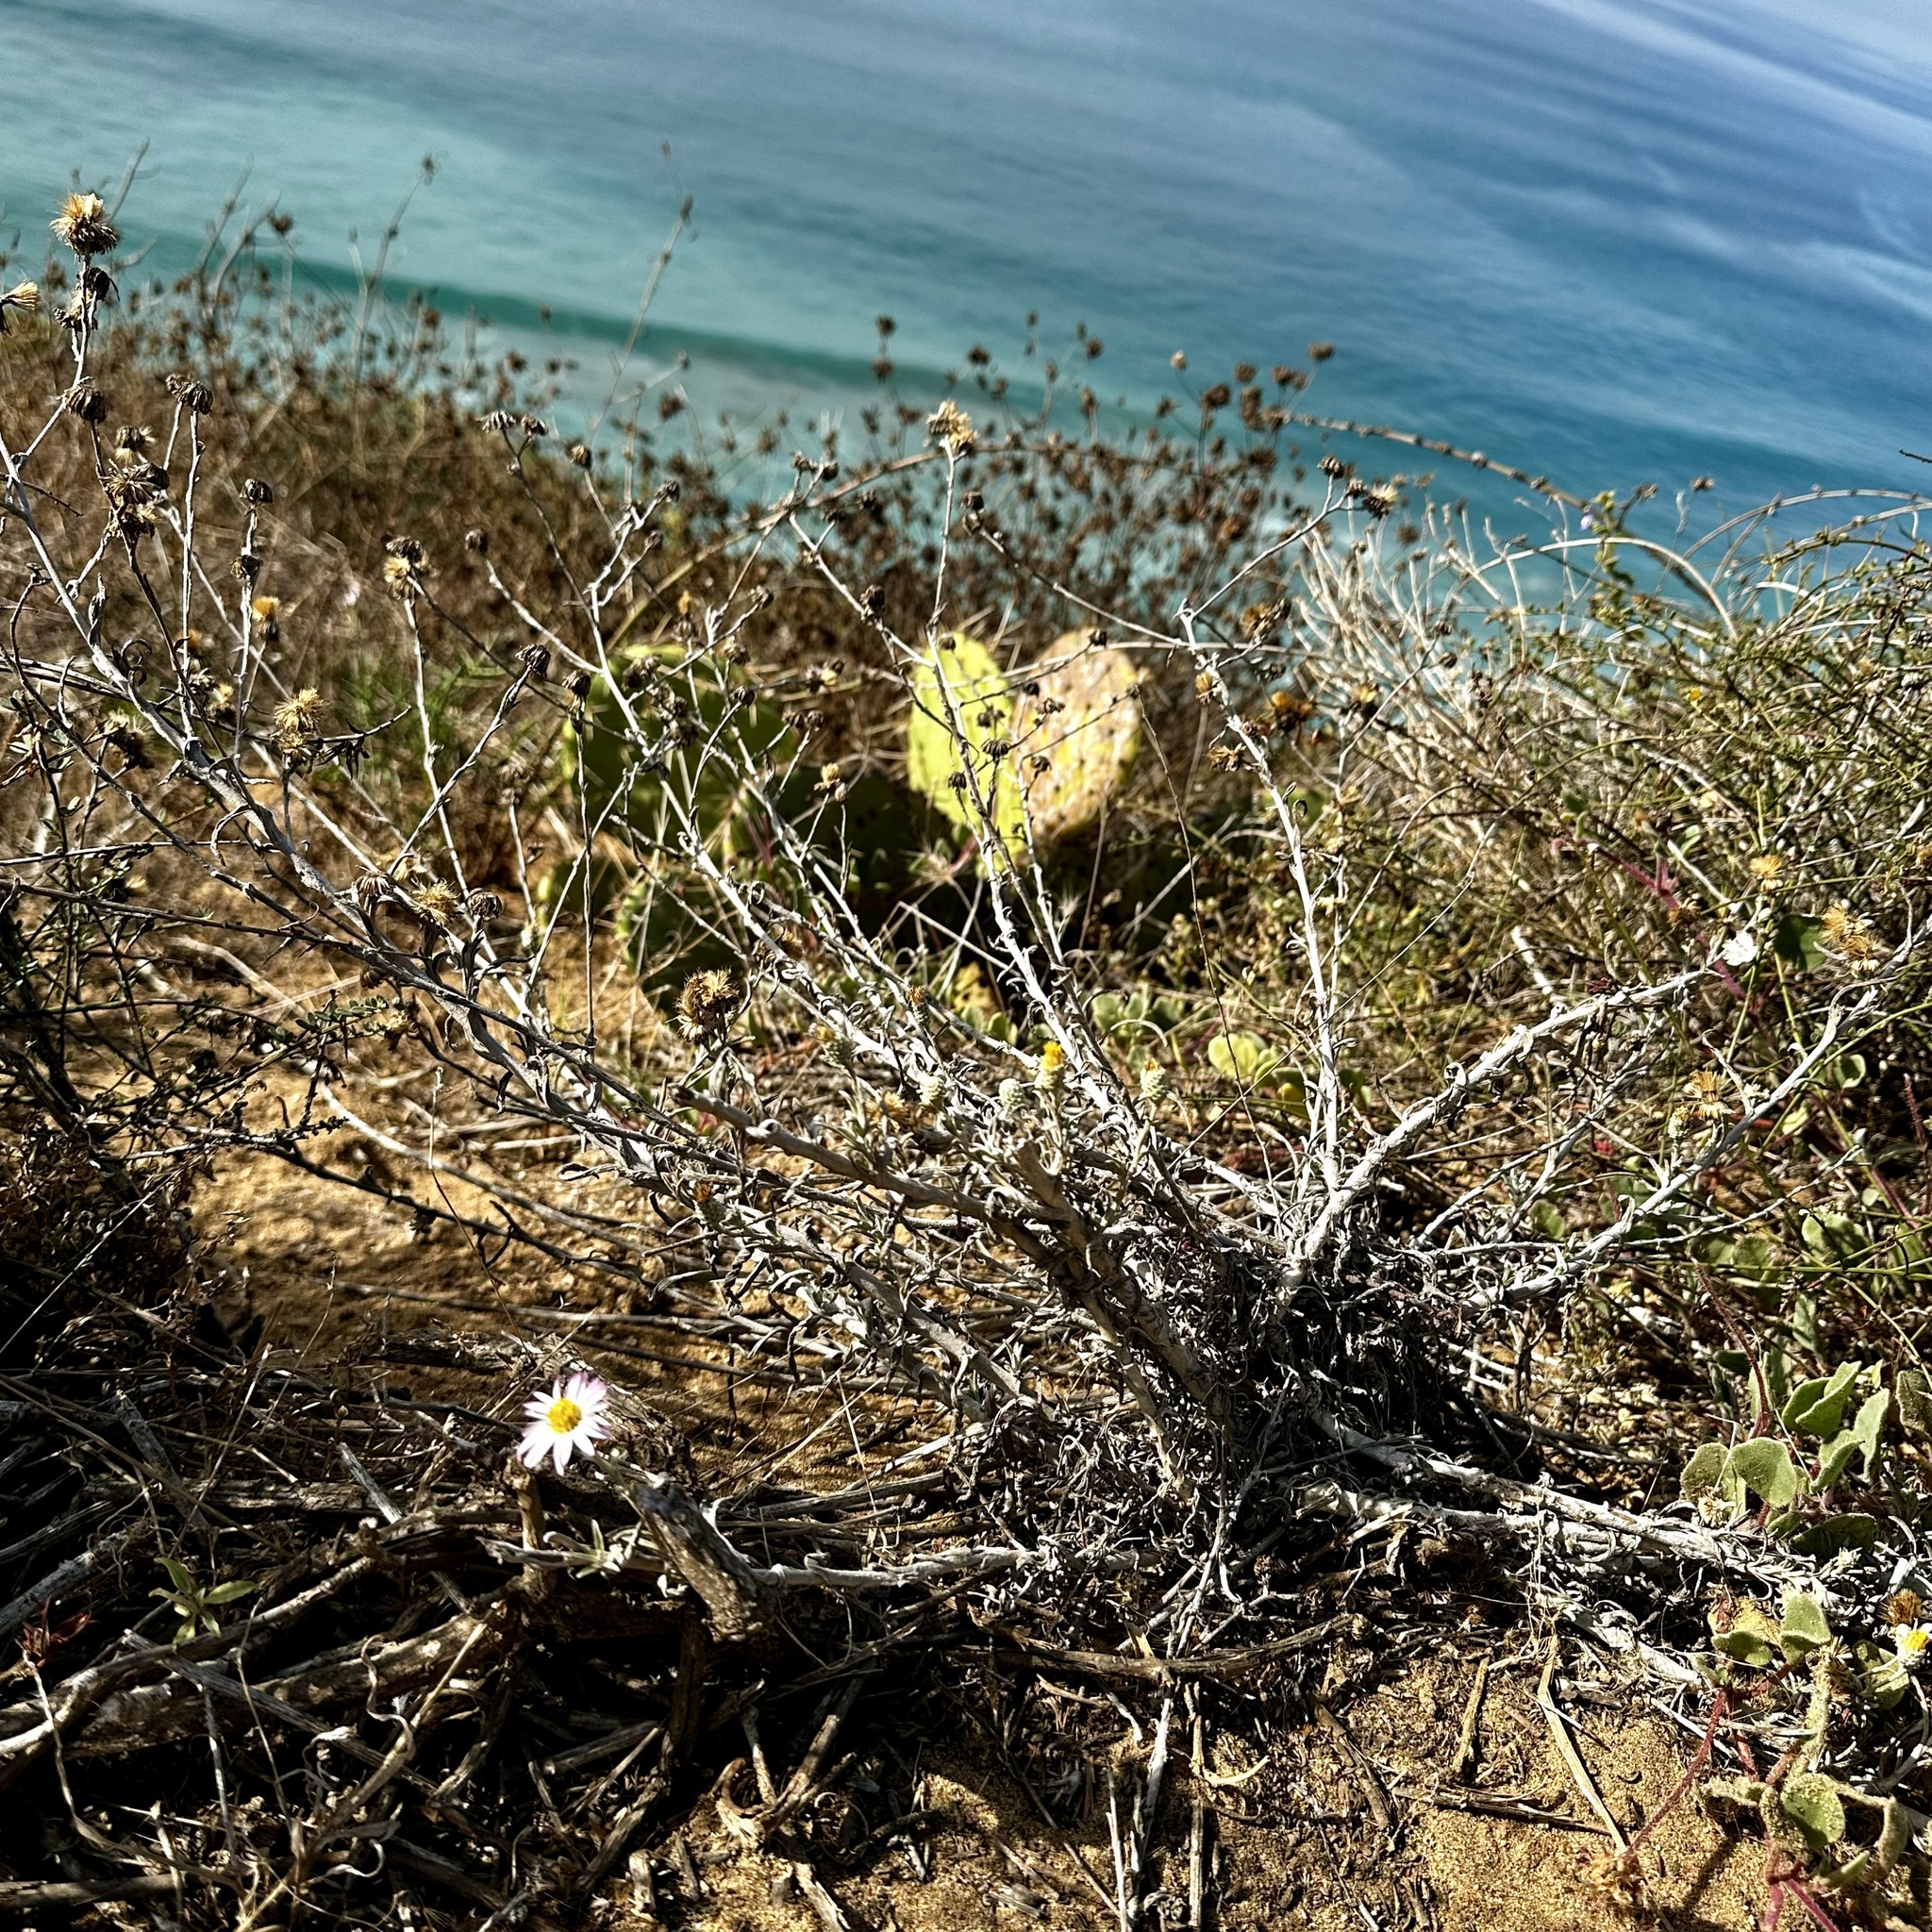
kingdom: Plantae
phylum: Tracheophyta
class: Magnoliopsida
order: Asterales
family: Asteraceae
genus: Corethrogyne
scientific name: Corethrogyne filaginifolia
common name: Sand-aster
